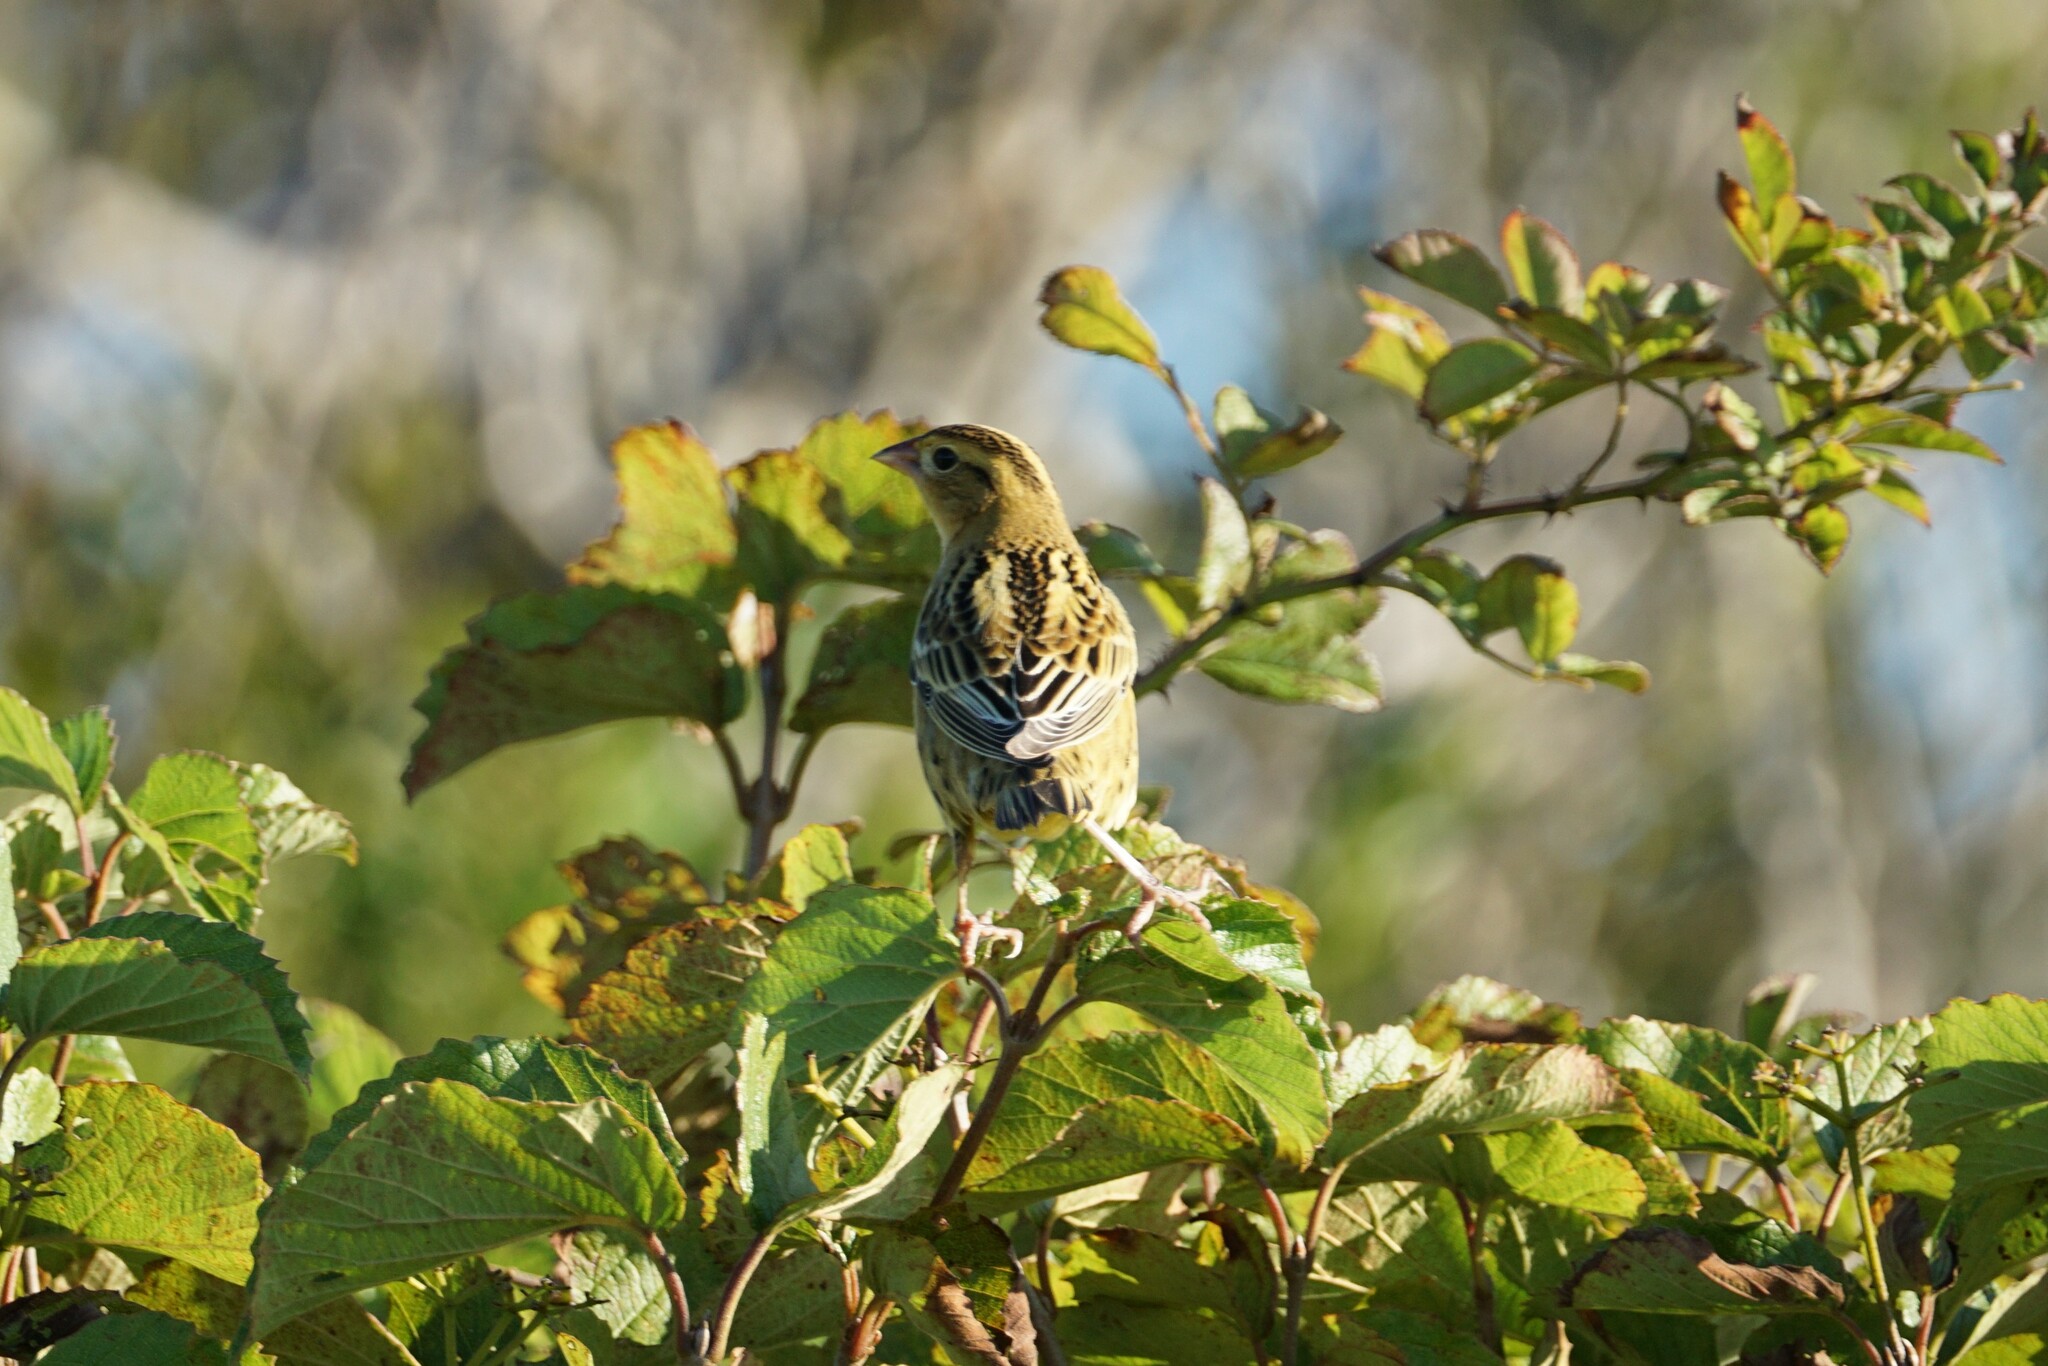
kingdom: Animalia
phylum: Chordata
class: Aves
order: Passeriformes
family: Icteridae
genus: Dolichonyx
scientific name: Dolichonyx oryzivorus
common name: Bobolink
